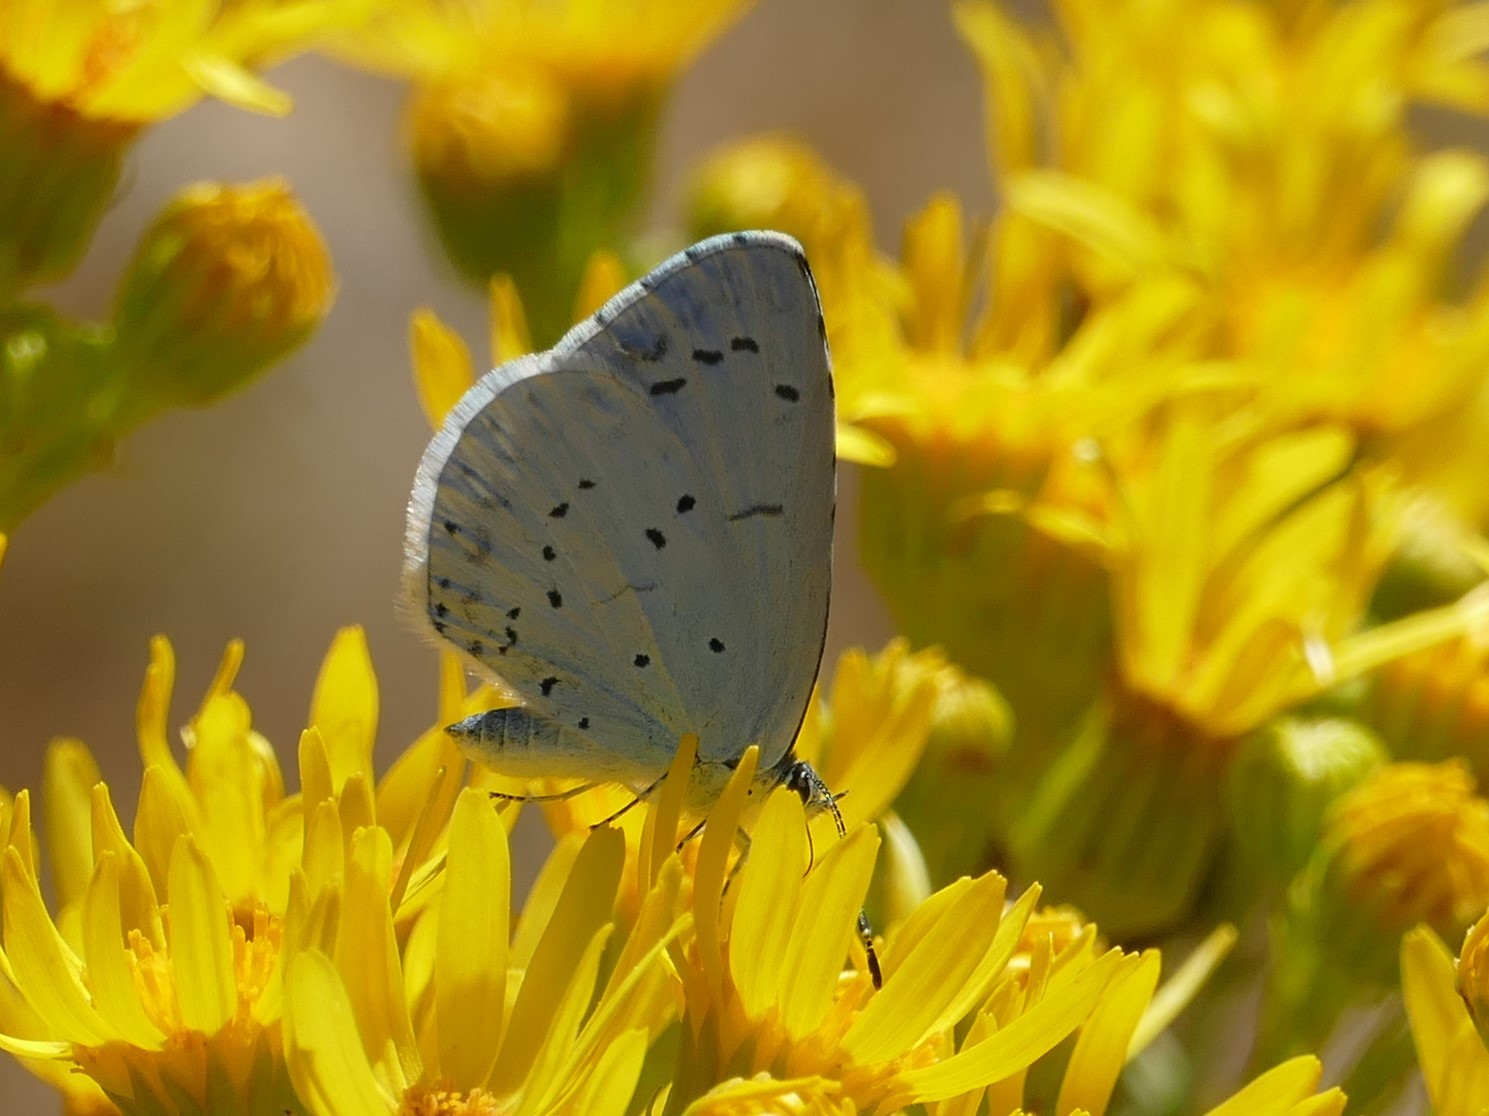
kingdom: Animalia
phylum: Arthropoda
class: Insecta
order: Lepidoptera
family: Lycaenidae
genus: Celastrina
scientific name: Celastrina argiolus
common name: Holly blue
